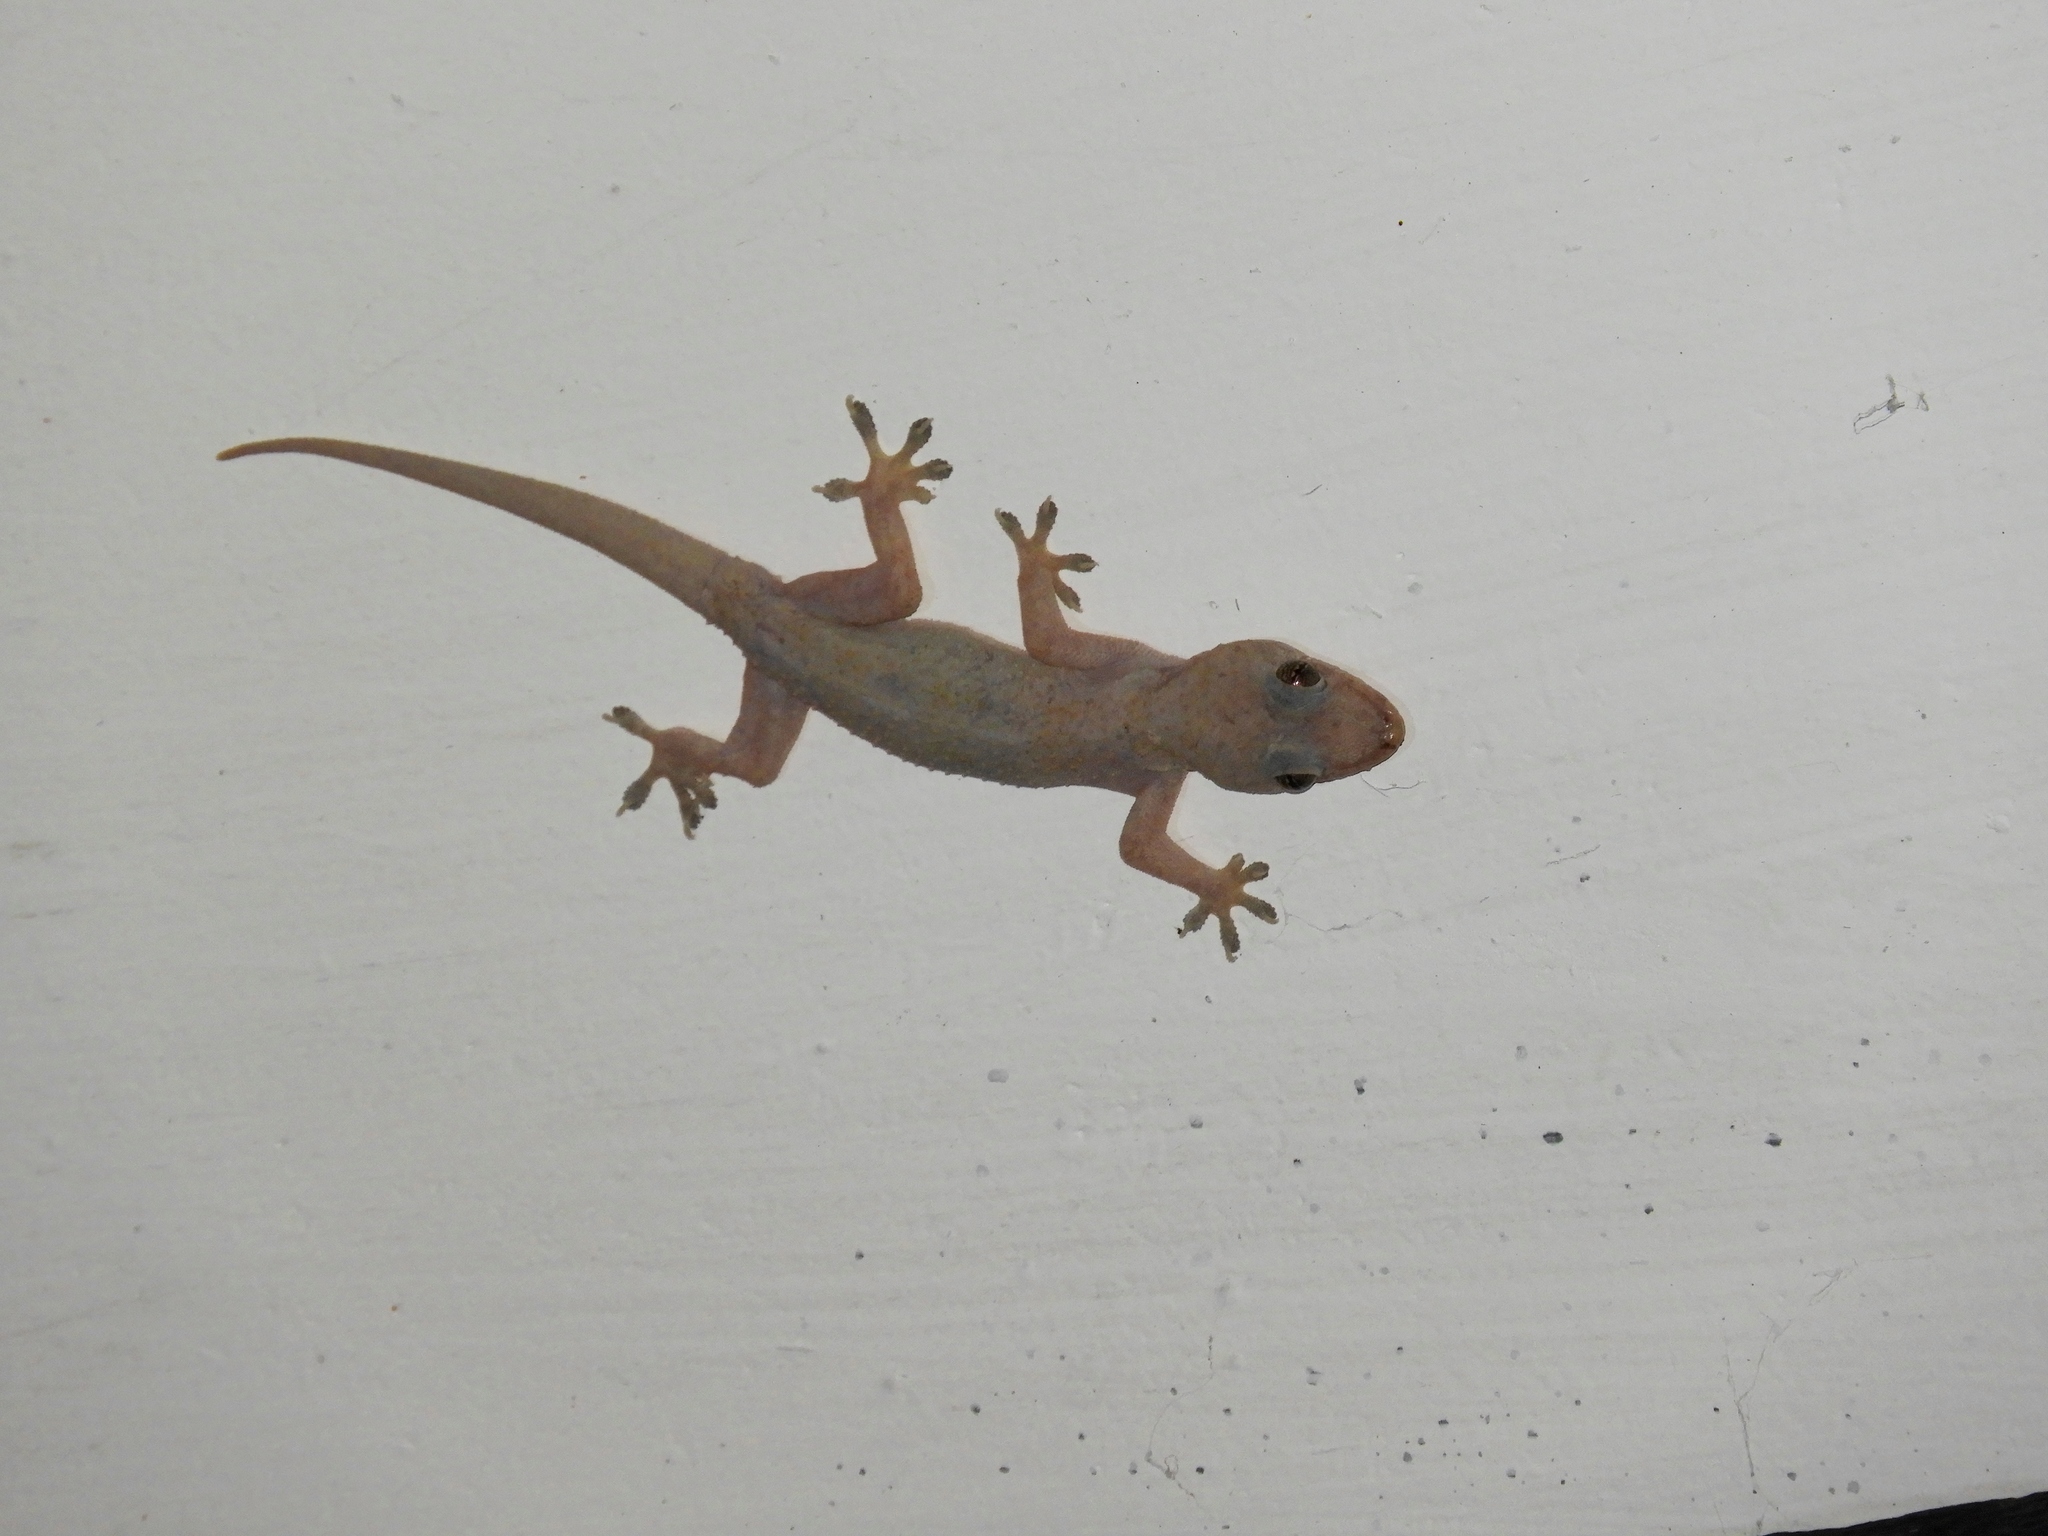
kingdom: Animalia
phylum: Chordata
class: Squamata
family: Gekkonidae
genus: Hemidactylus
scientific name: Hemidactylus mabouia
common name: House gecko
